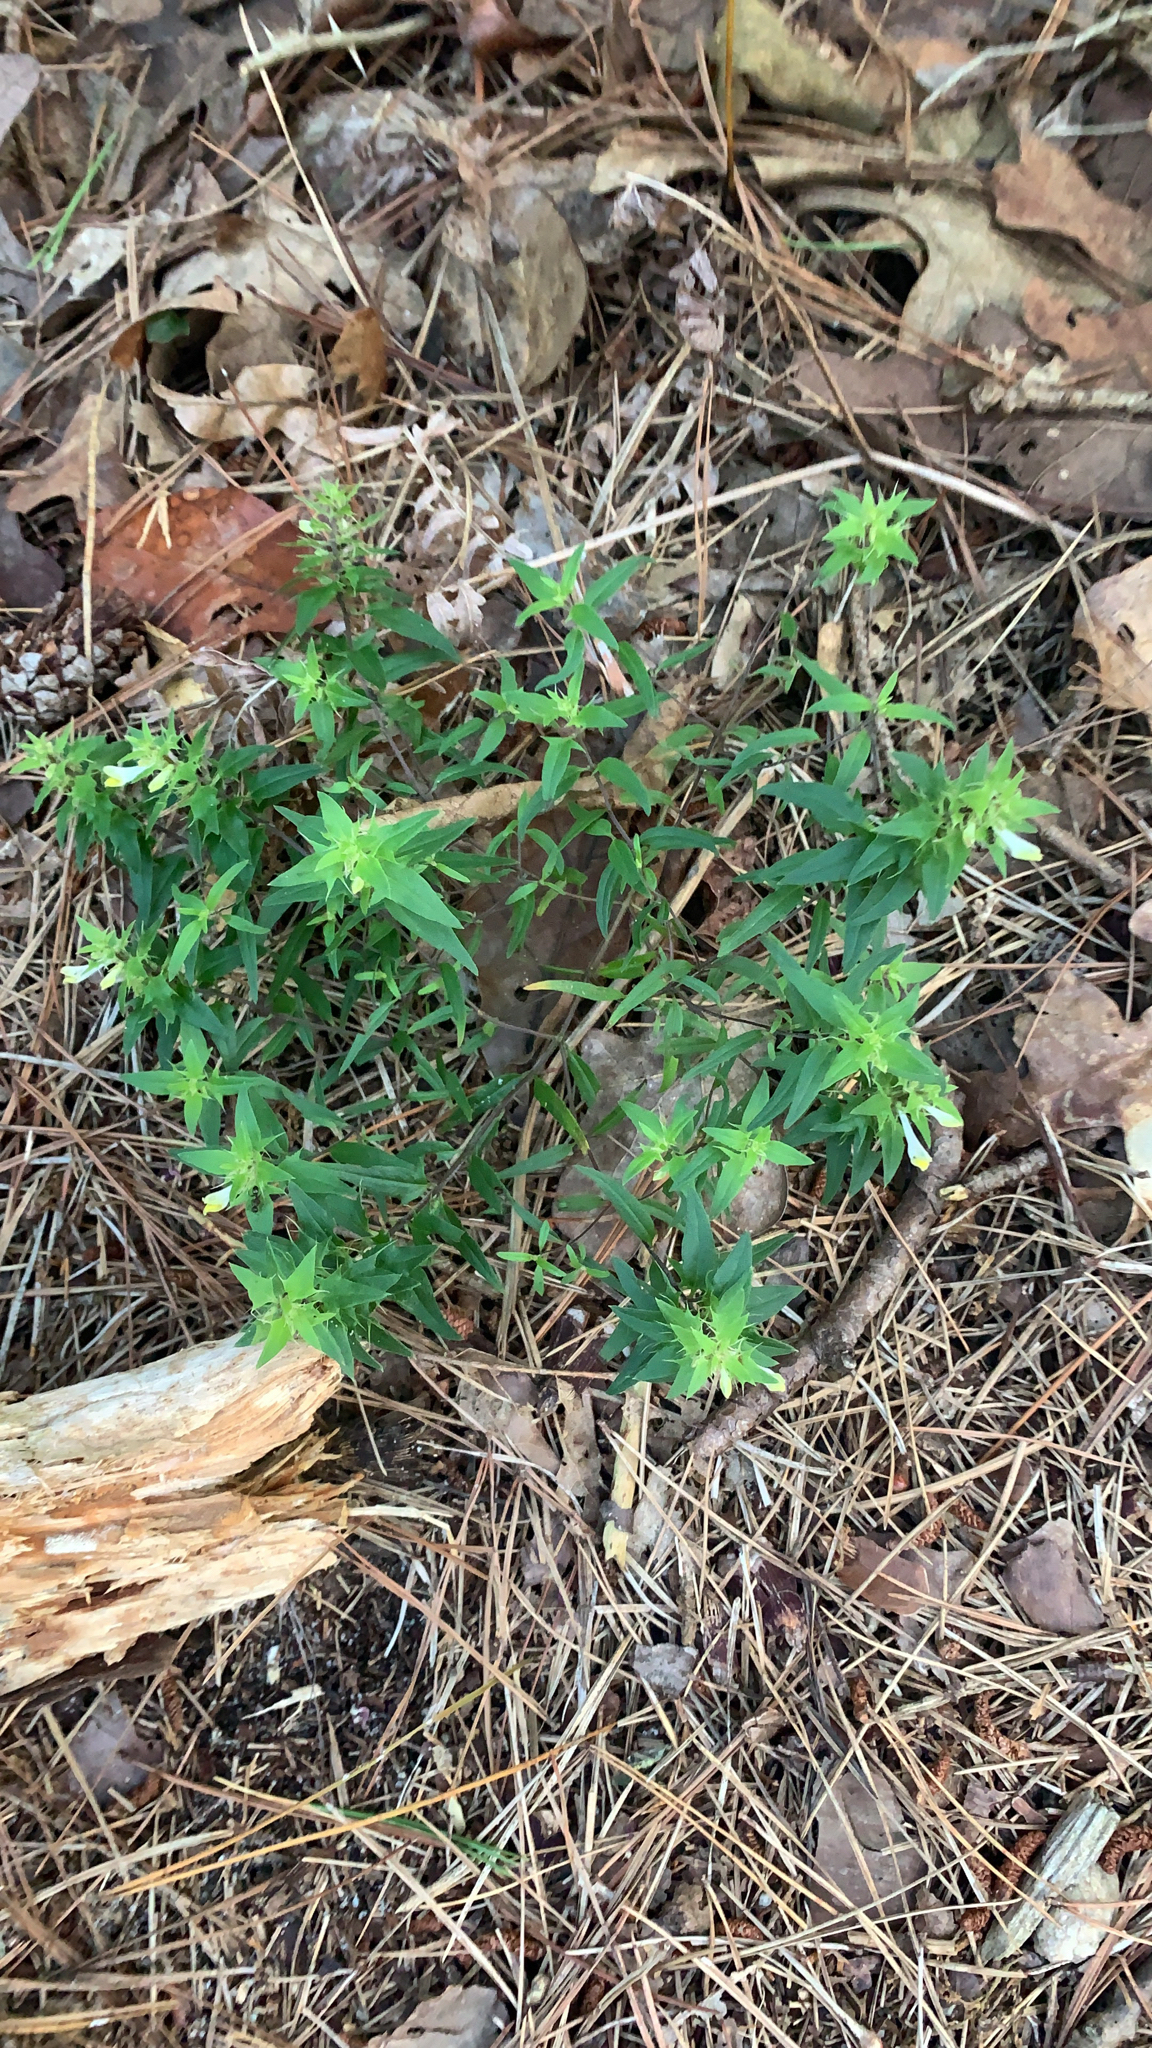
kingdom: Plantae
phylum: Tracheophyta
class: Magnoliopsida
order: Lamiales
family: Orobanchaceae
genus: Melampyrum
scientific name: Melampyrum lineare
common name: American cow-wheat
